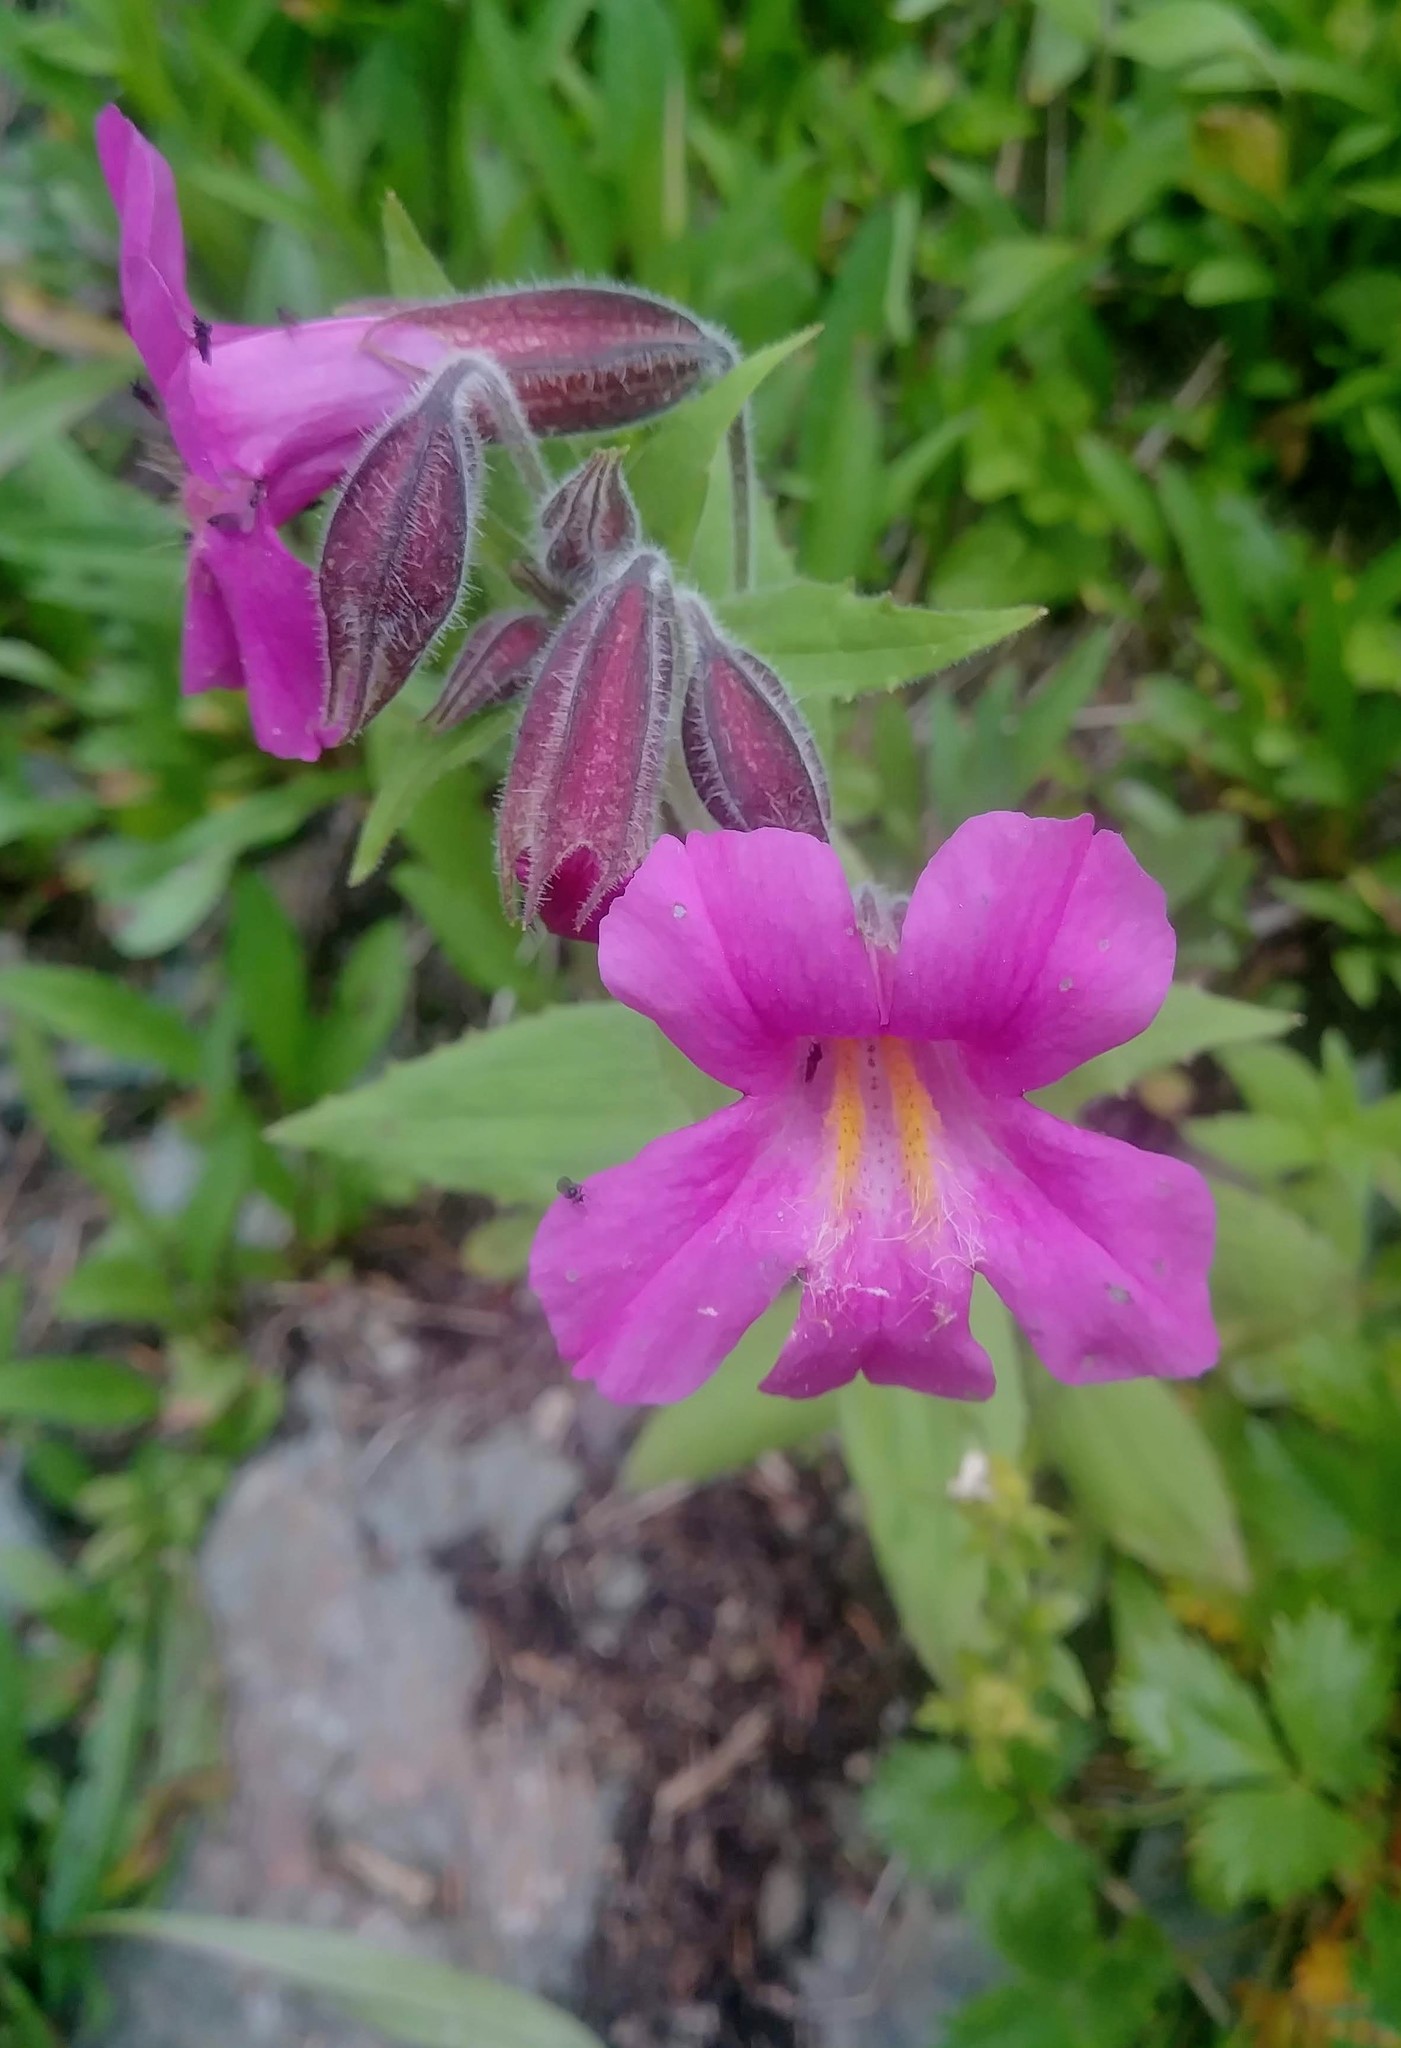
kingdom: Plantae
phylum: Tracheophyta
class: Magnoliopsida
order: Lamiales
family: Phrymaceae
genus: Erythranthe
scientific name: Erythranthe lewisii
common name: Lewis's monkey-flower
